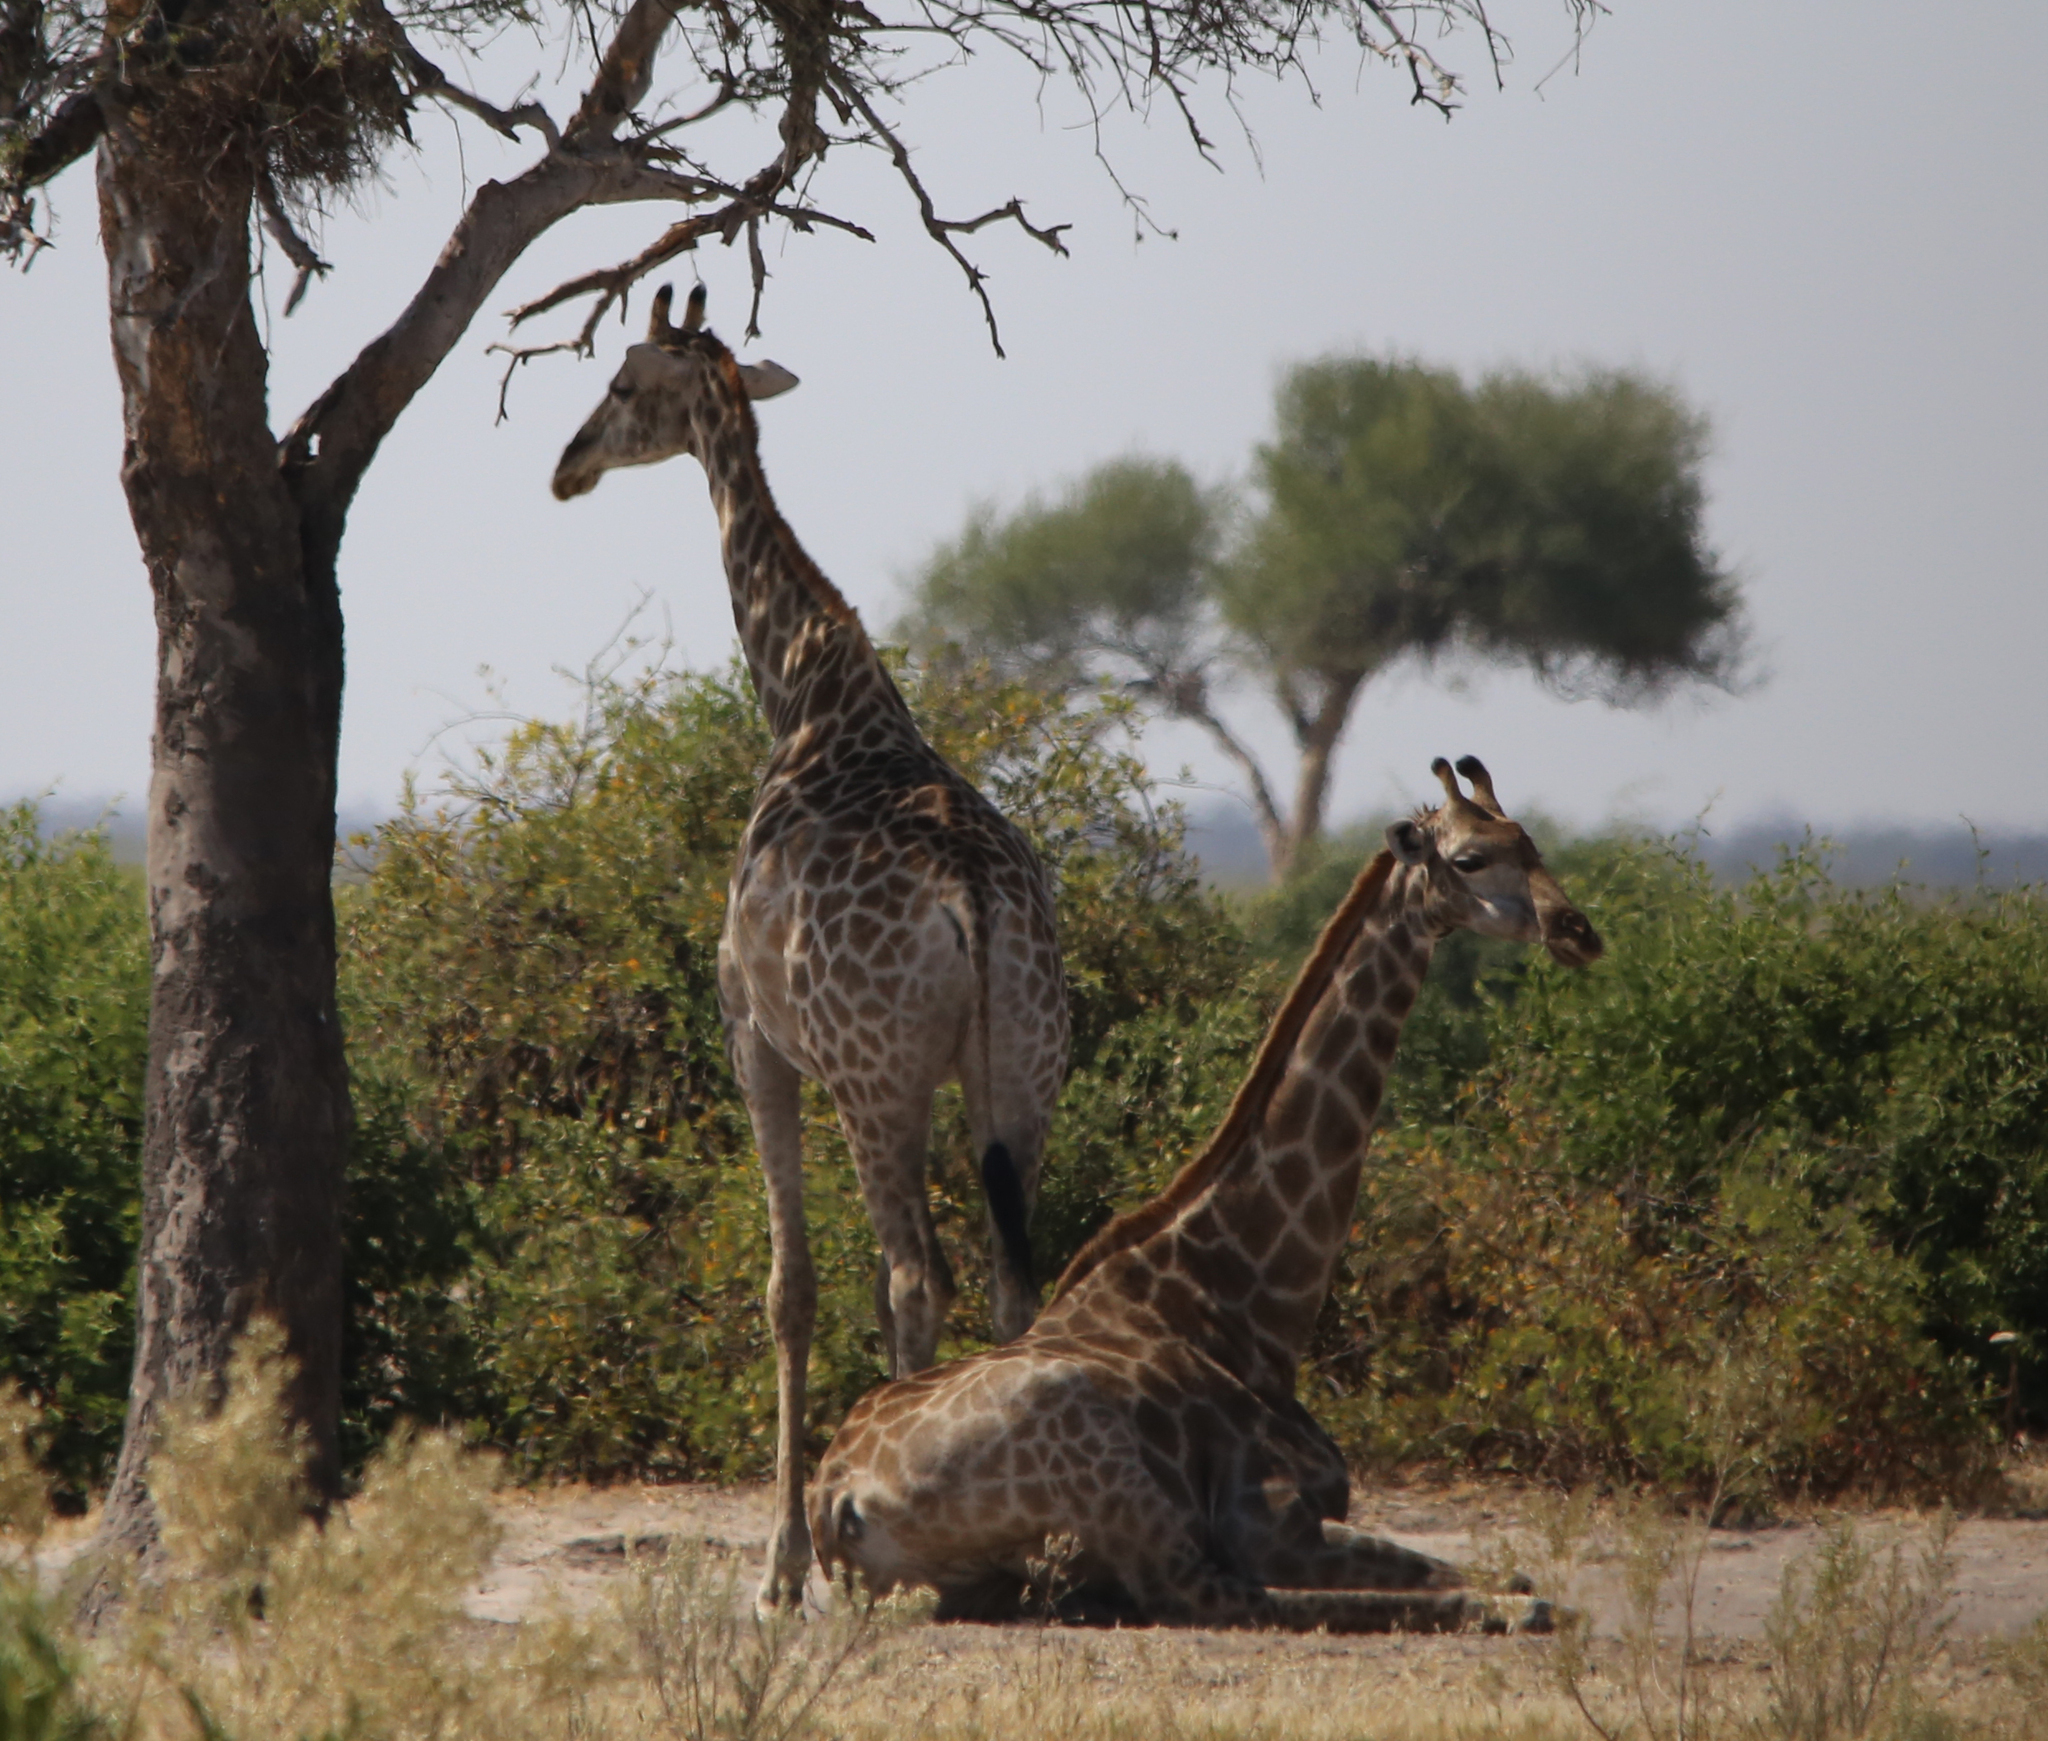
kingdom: Animalia
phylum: Chordata
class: Mammalia
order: Artiodactyla
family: Giraffidae
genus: Giraffa
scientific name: Giraffa giraffa
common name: Southern giraffe
